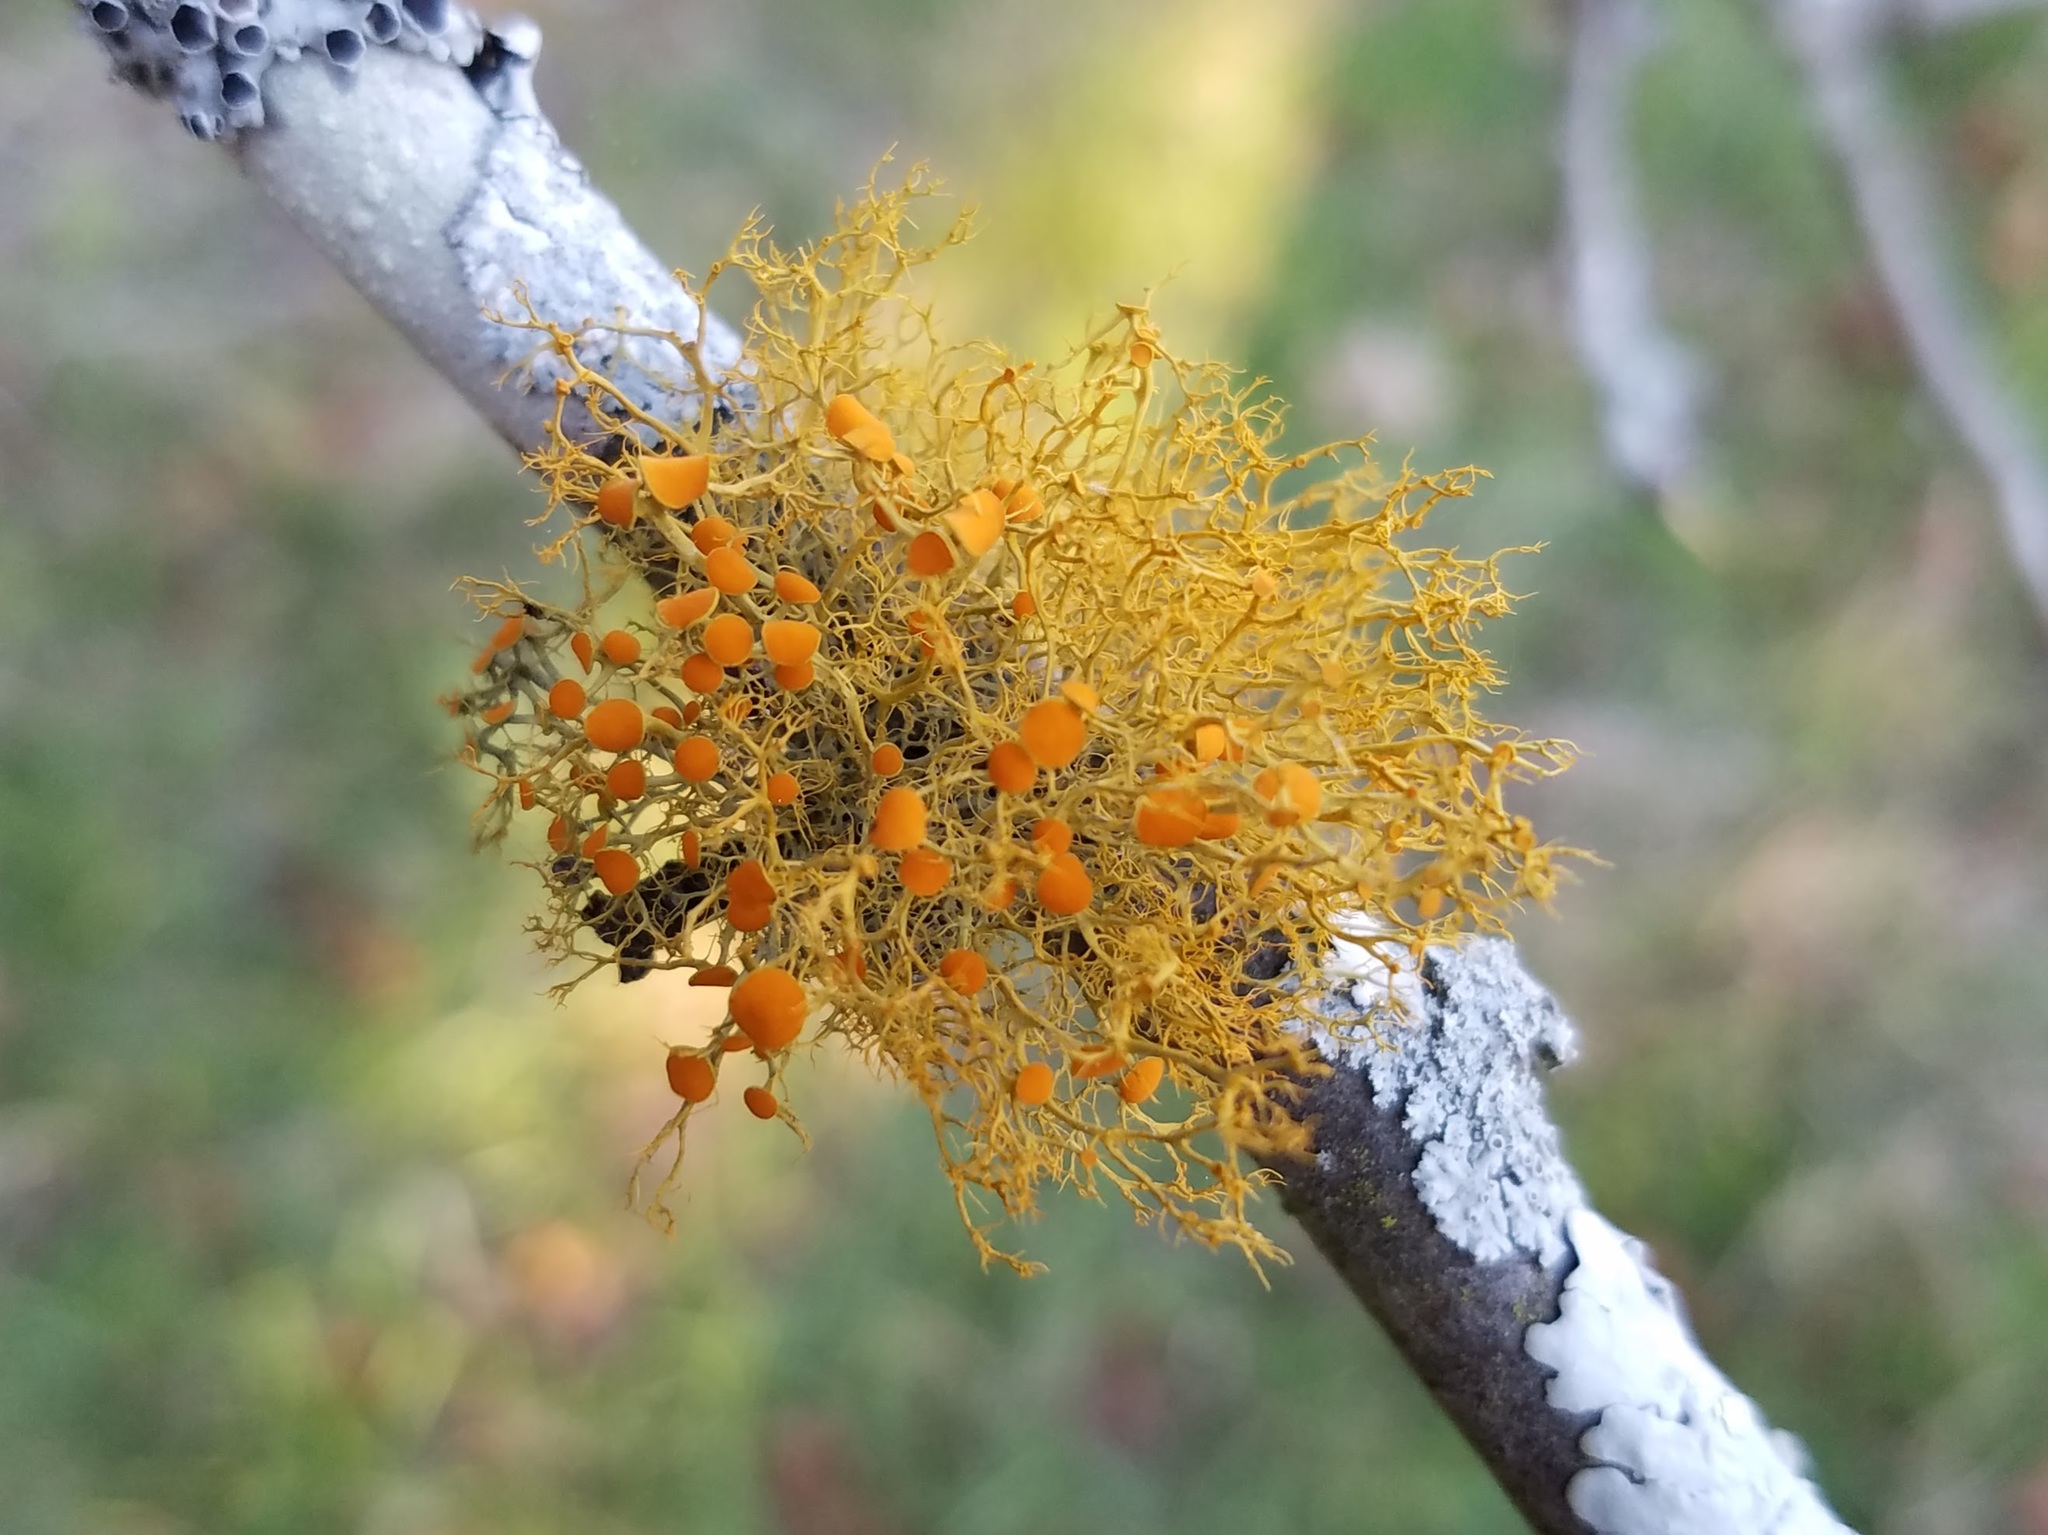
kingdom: Fungi
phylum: Ascomycota
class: Lecanoromycetes
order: Teloschistales
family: Teloschistaceae
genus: Teloschistes
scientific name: Teloschistes exilis
